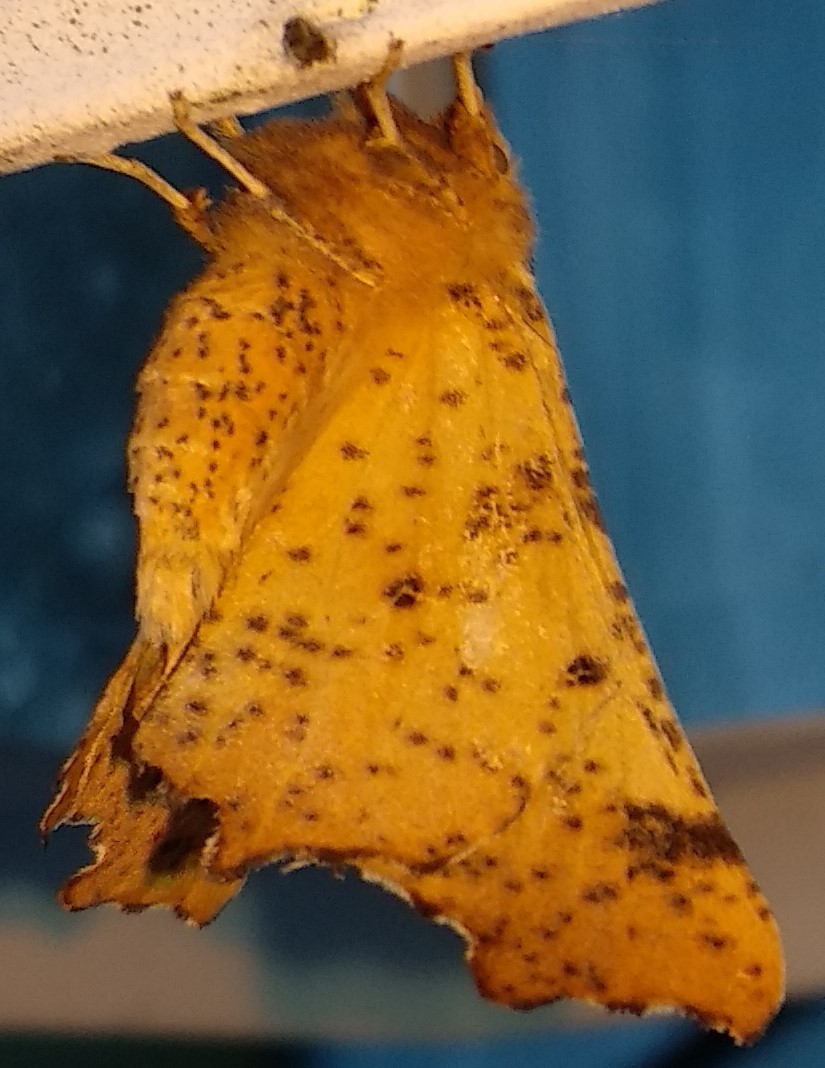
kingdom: Animalia
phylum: Arthropoda
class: Insecta
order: Lepidoptera
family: Geometridae
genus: Ennomos
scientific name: Ennomos magnaria
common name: Maple spanworm
